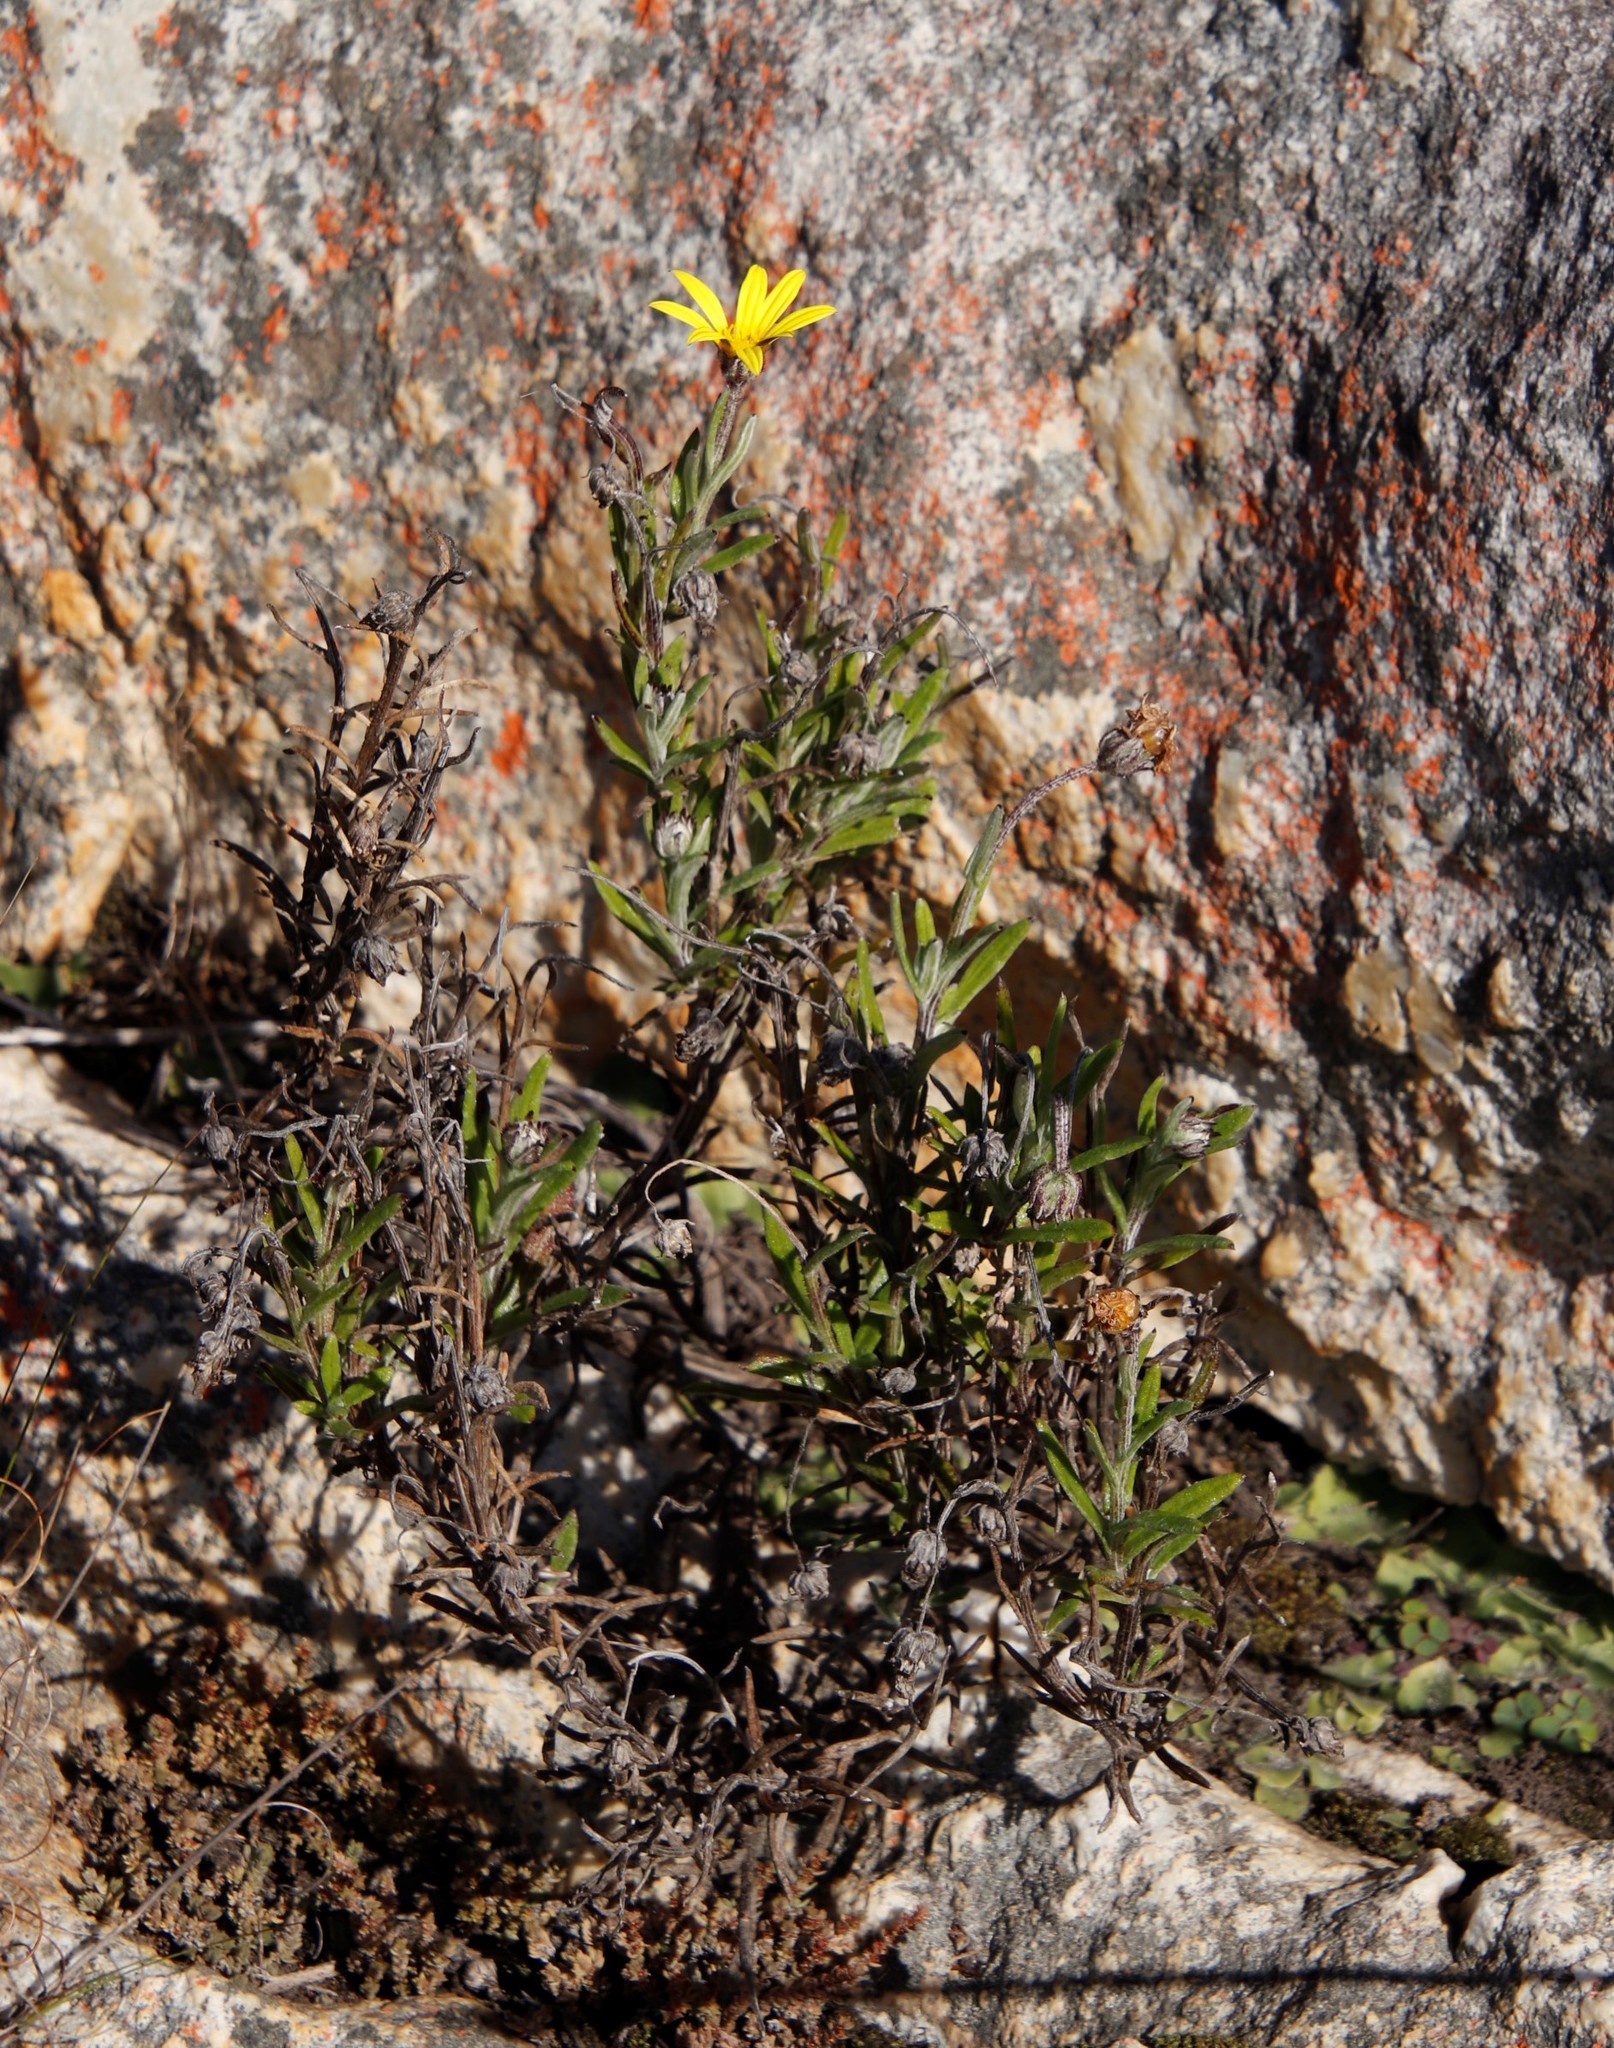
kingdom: Plantae
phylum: Tracheophyta
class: Magnoliopsida
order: Asterales
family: Asteraceae
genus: Arctotis
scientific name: Arctotis scabra
